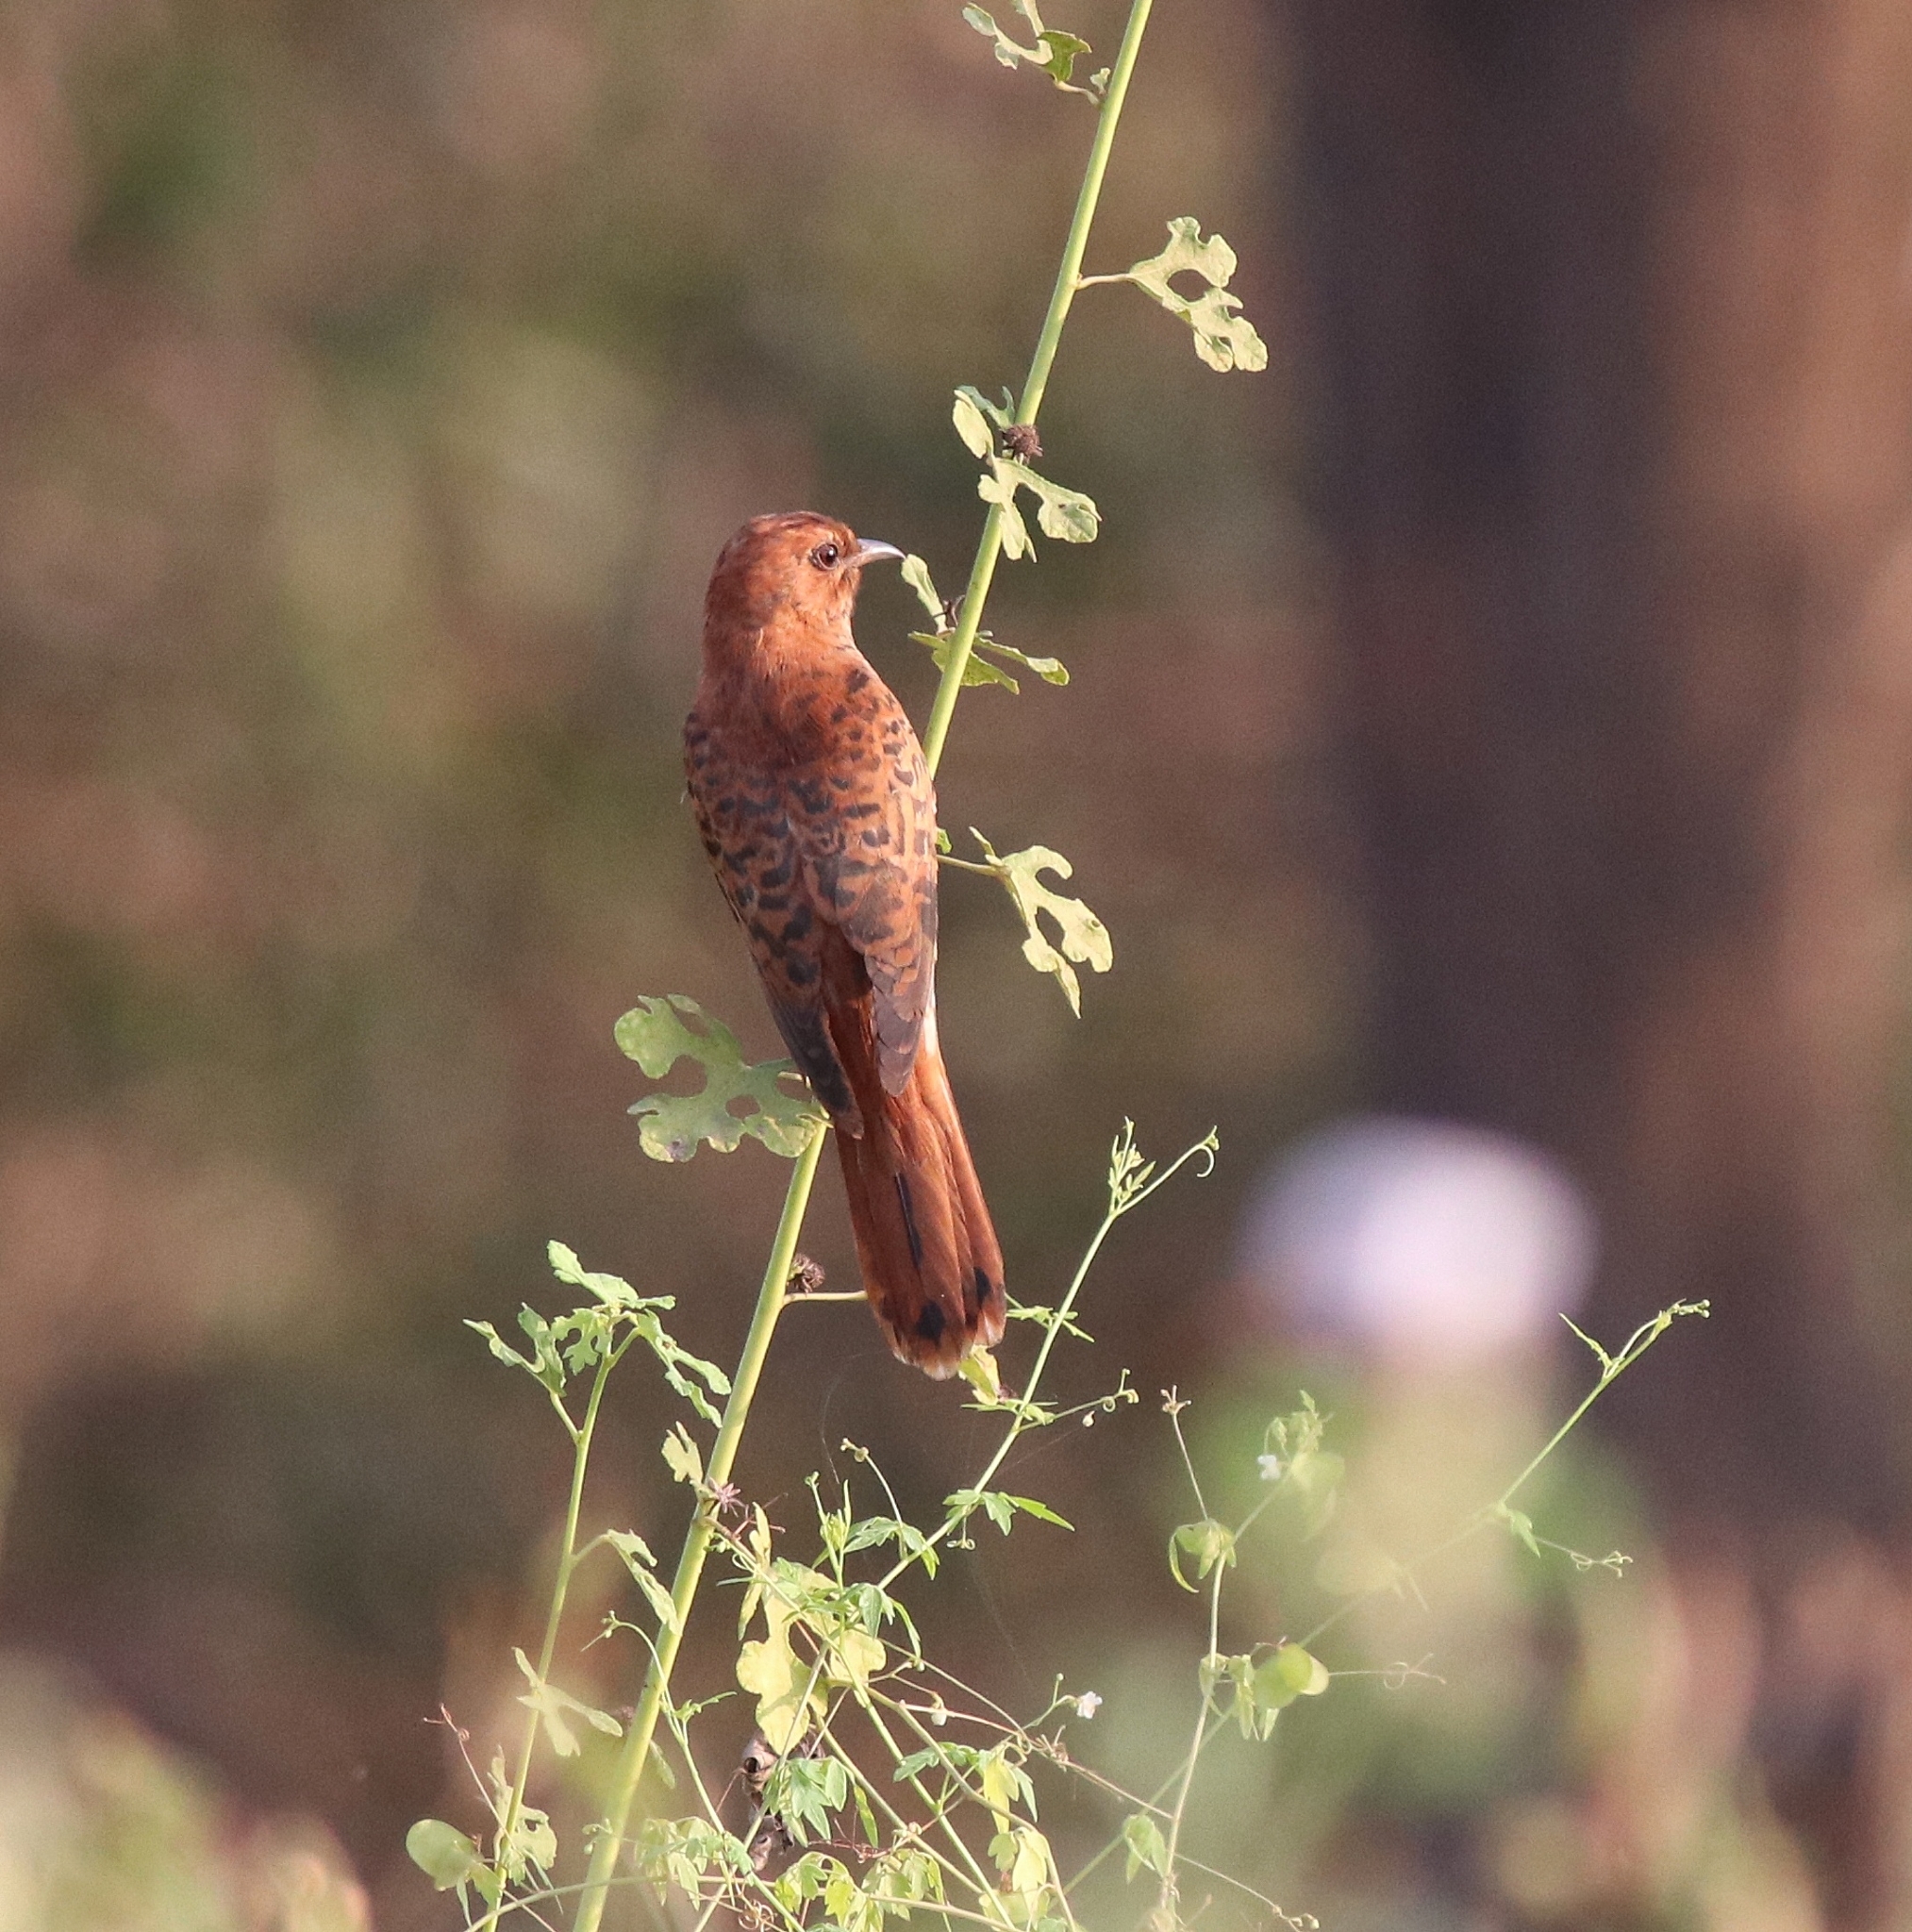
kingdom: Animalia
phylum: Chordata
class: Aves
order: Cuculiformes
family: Cuculidae
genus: Cacomantis
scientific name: Cacomantis passerinus
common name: Grey-bellied cuckoo
